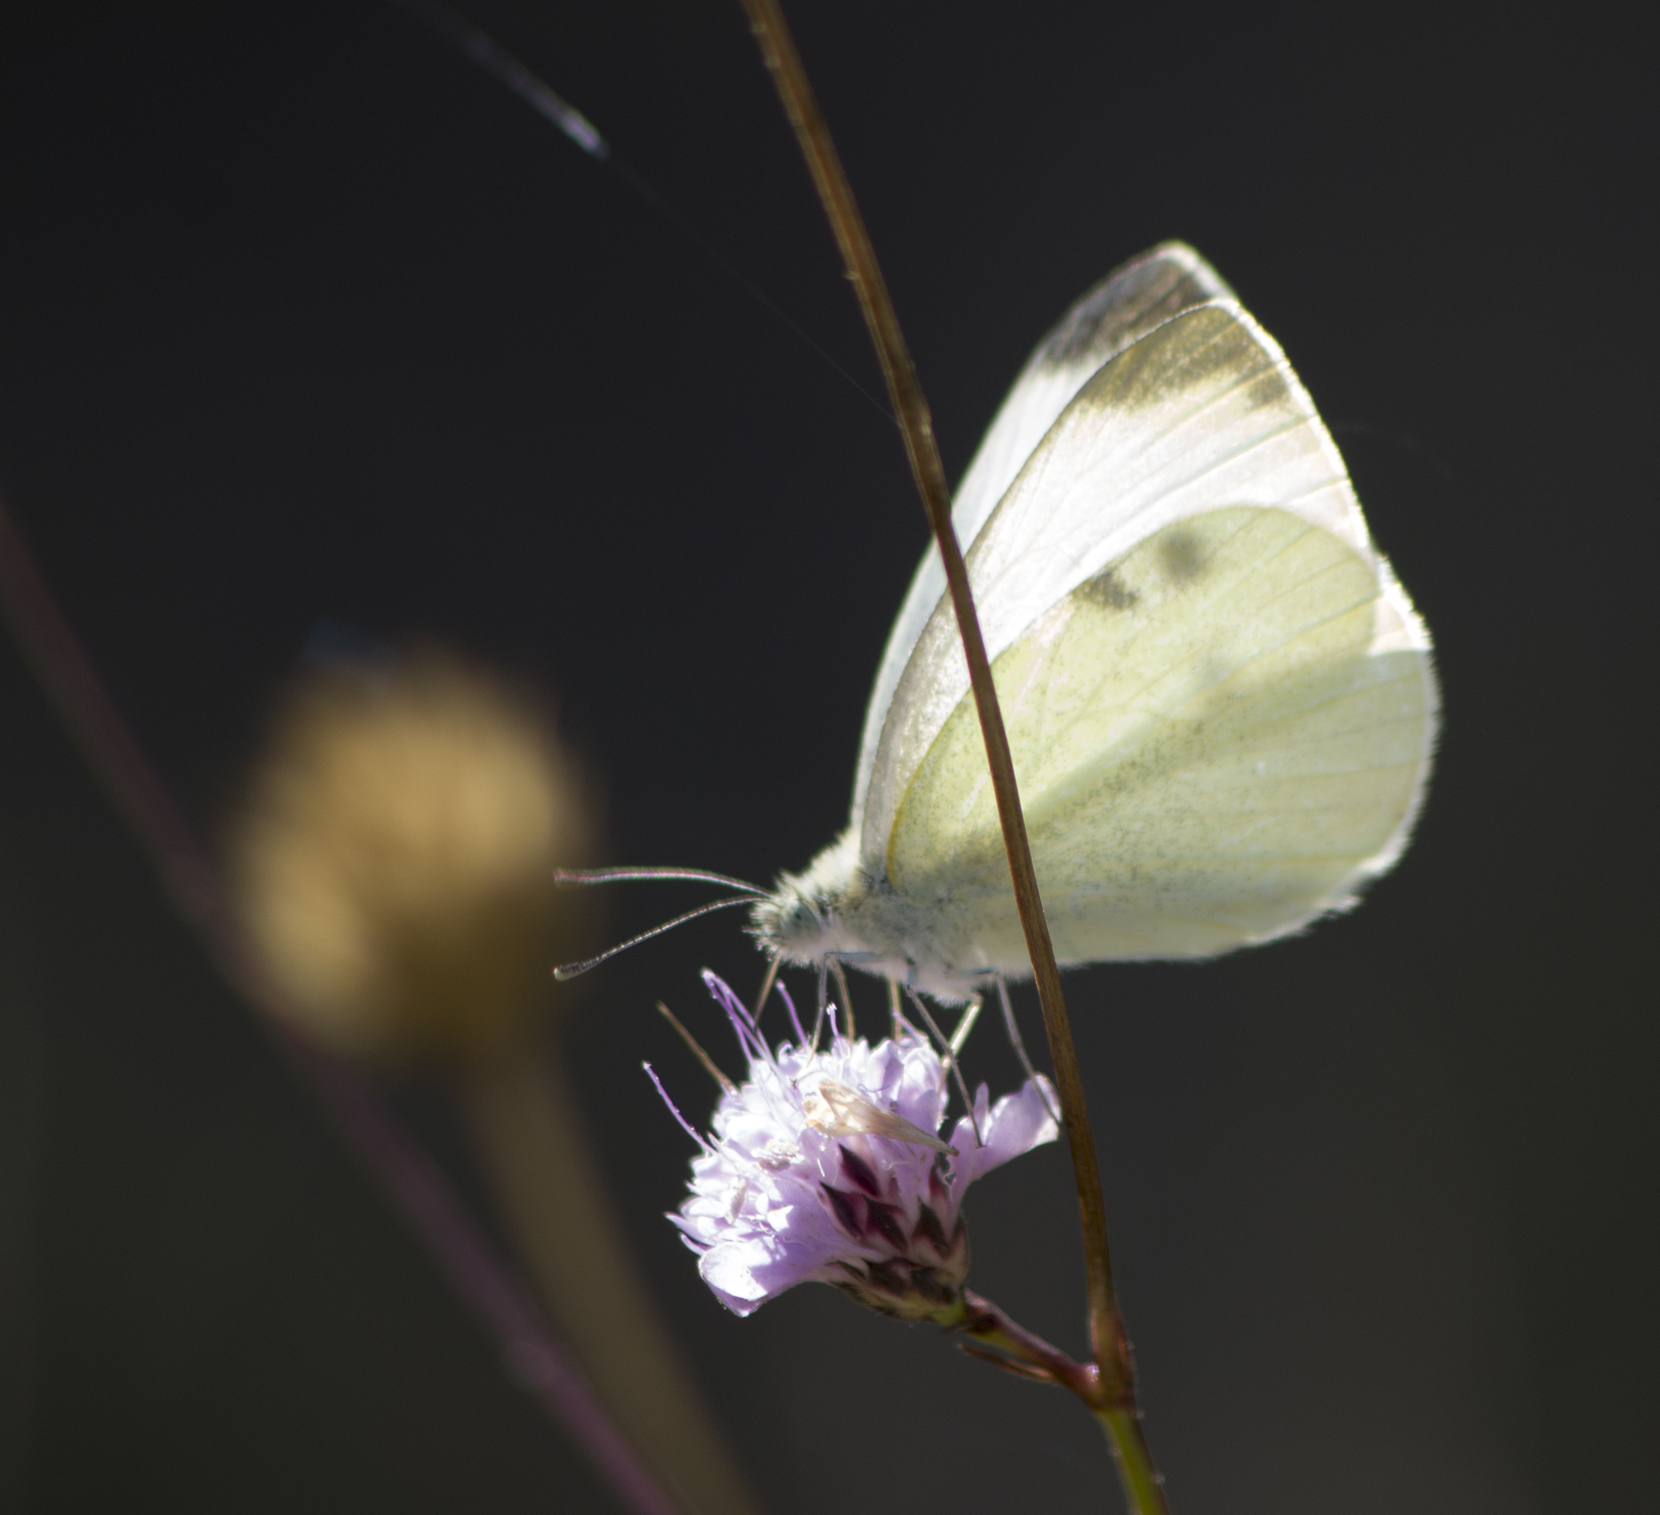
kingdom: Animalia
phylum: Arthropoda
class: Insecta
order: Lepidoptera
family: Pieridae
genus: Pieris
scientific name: Pieris rapae
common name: Small white
